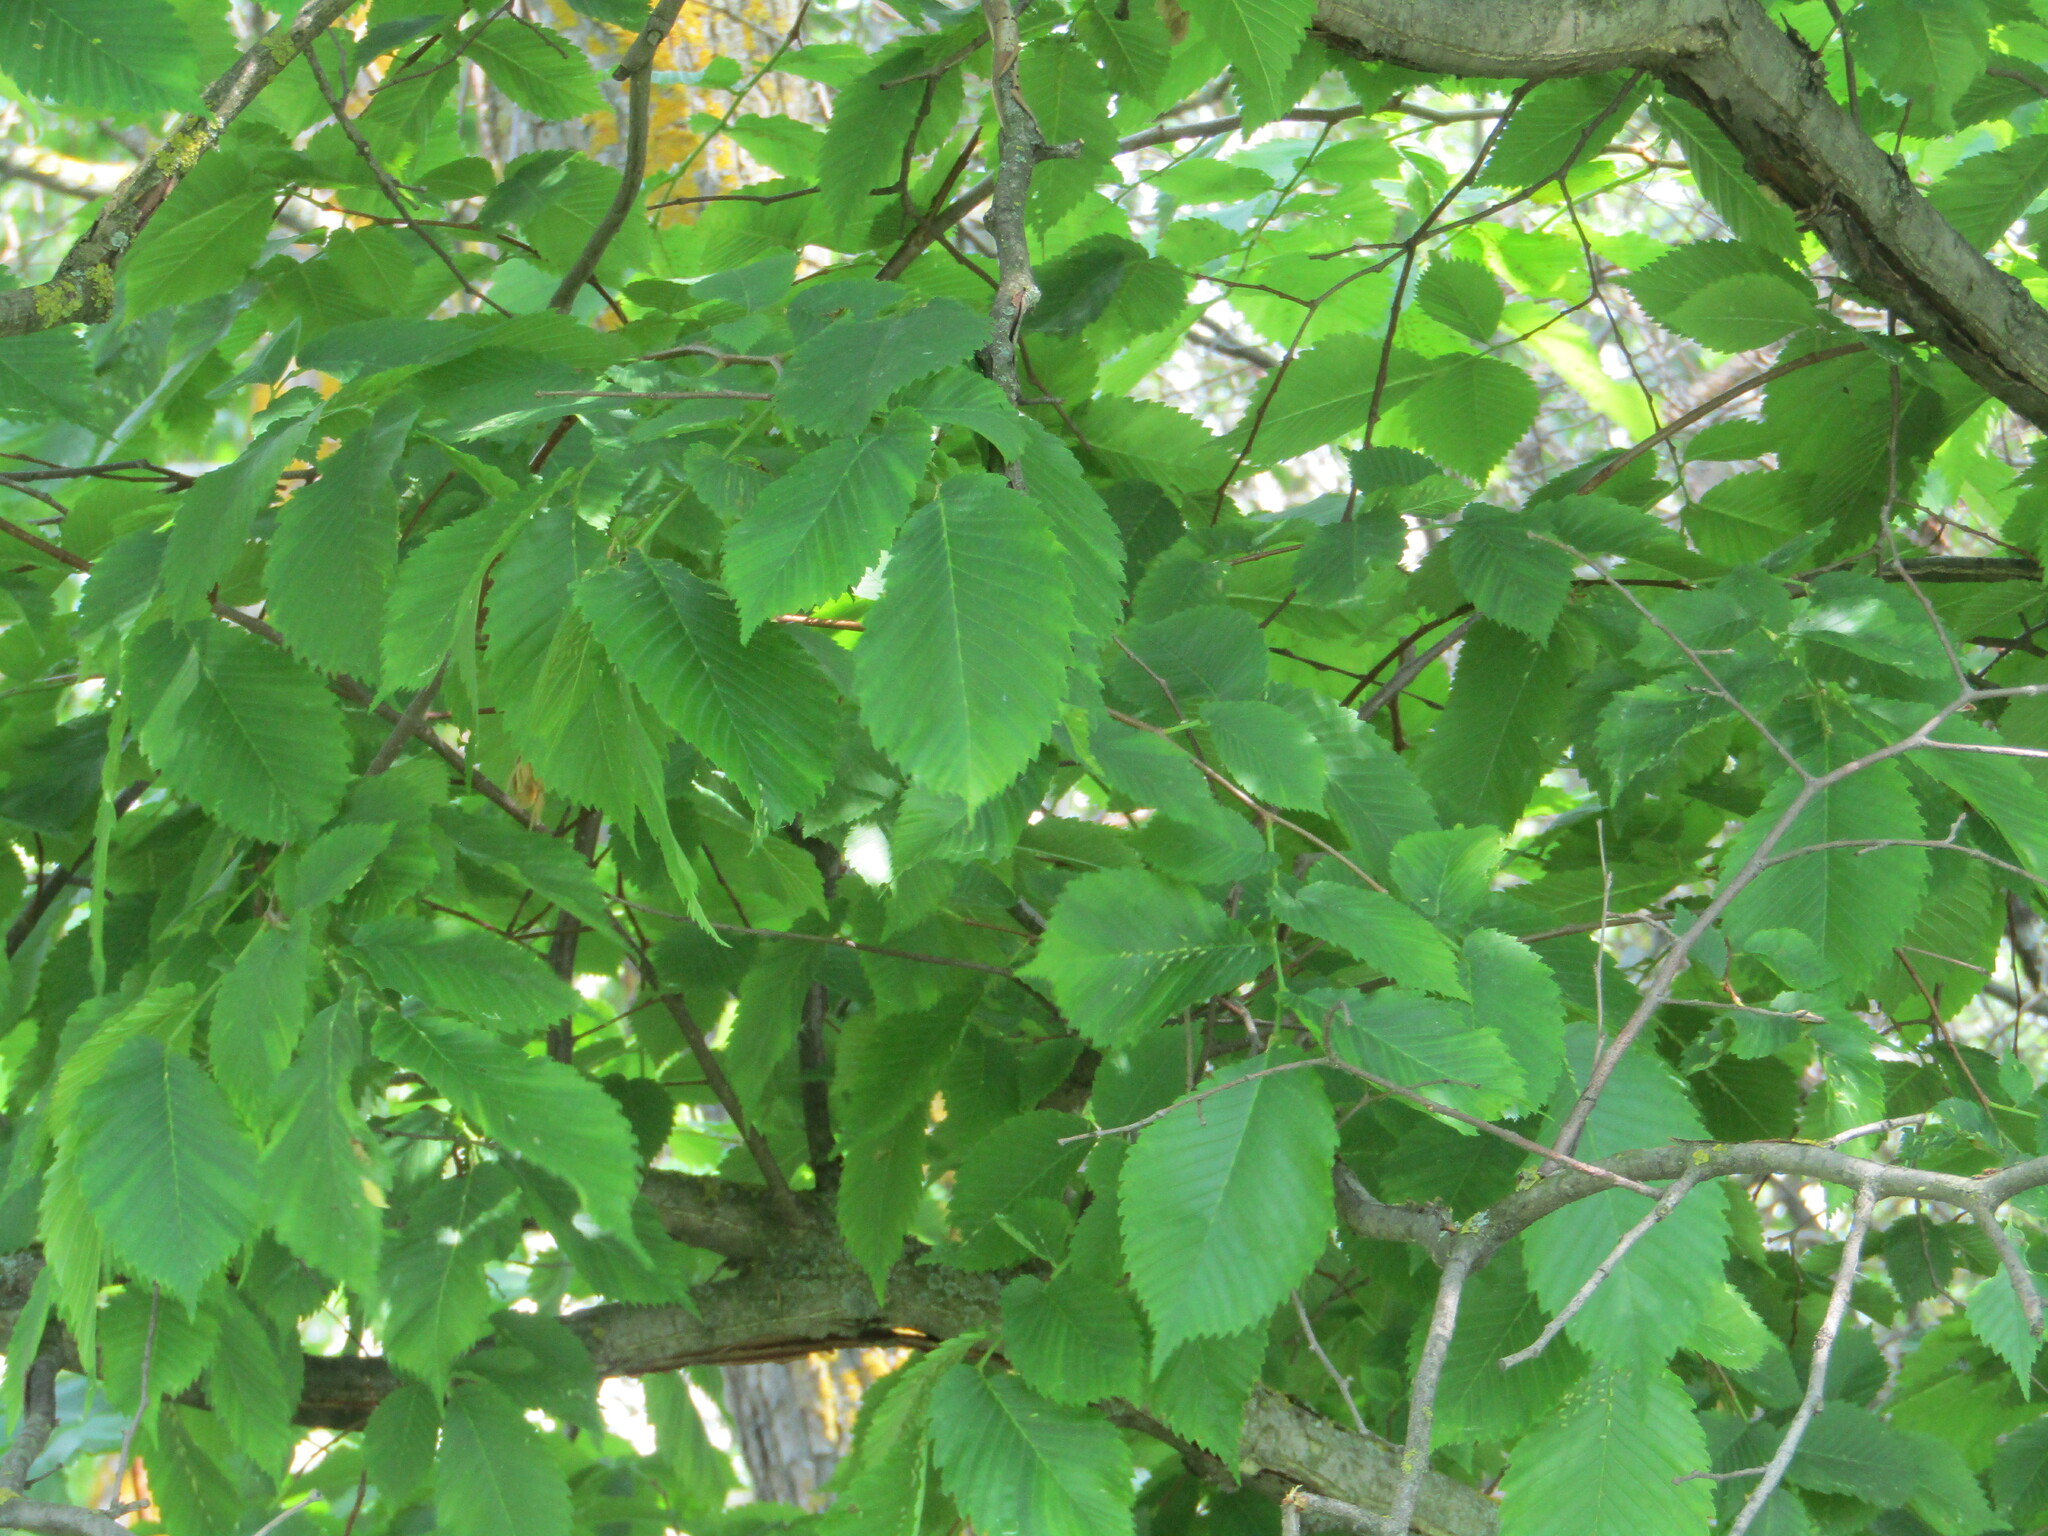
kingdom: Plantae
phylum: Tracheophyta
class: Magnoliopsida
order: Rosales
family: Ulmaceae
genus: Ulmus
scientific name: Ulmus laevis
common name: European white-elm
